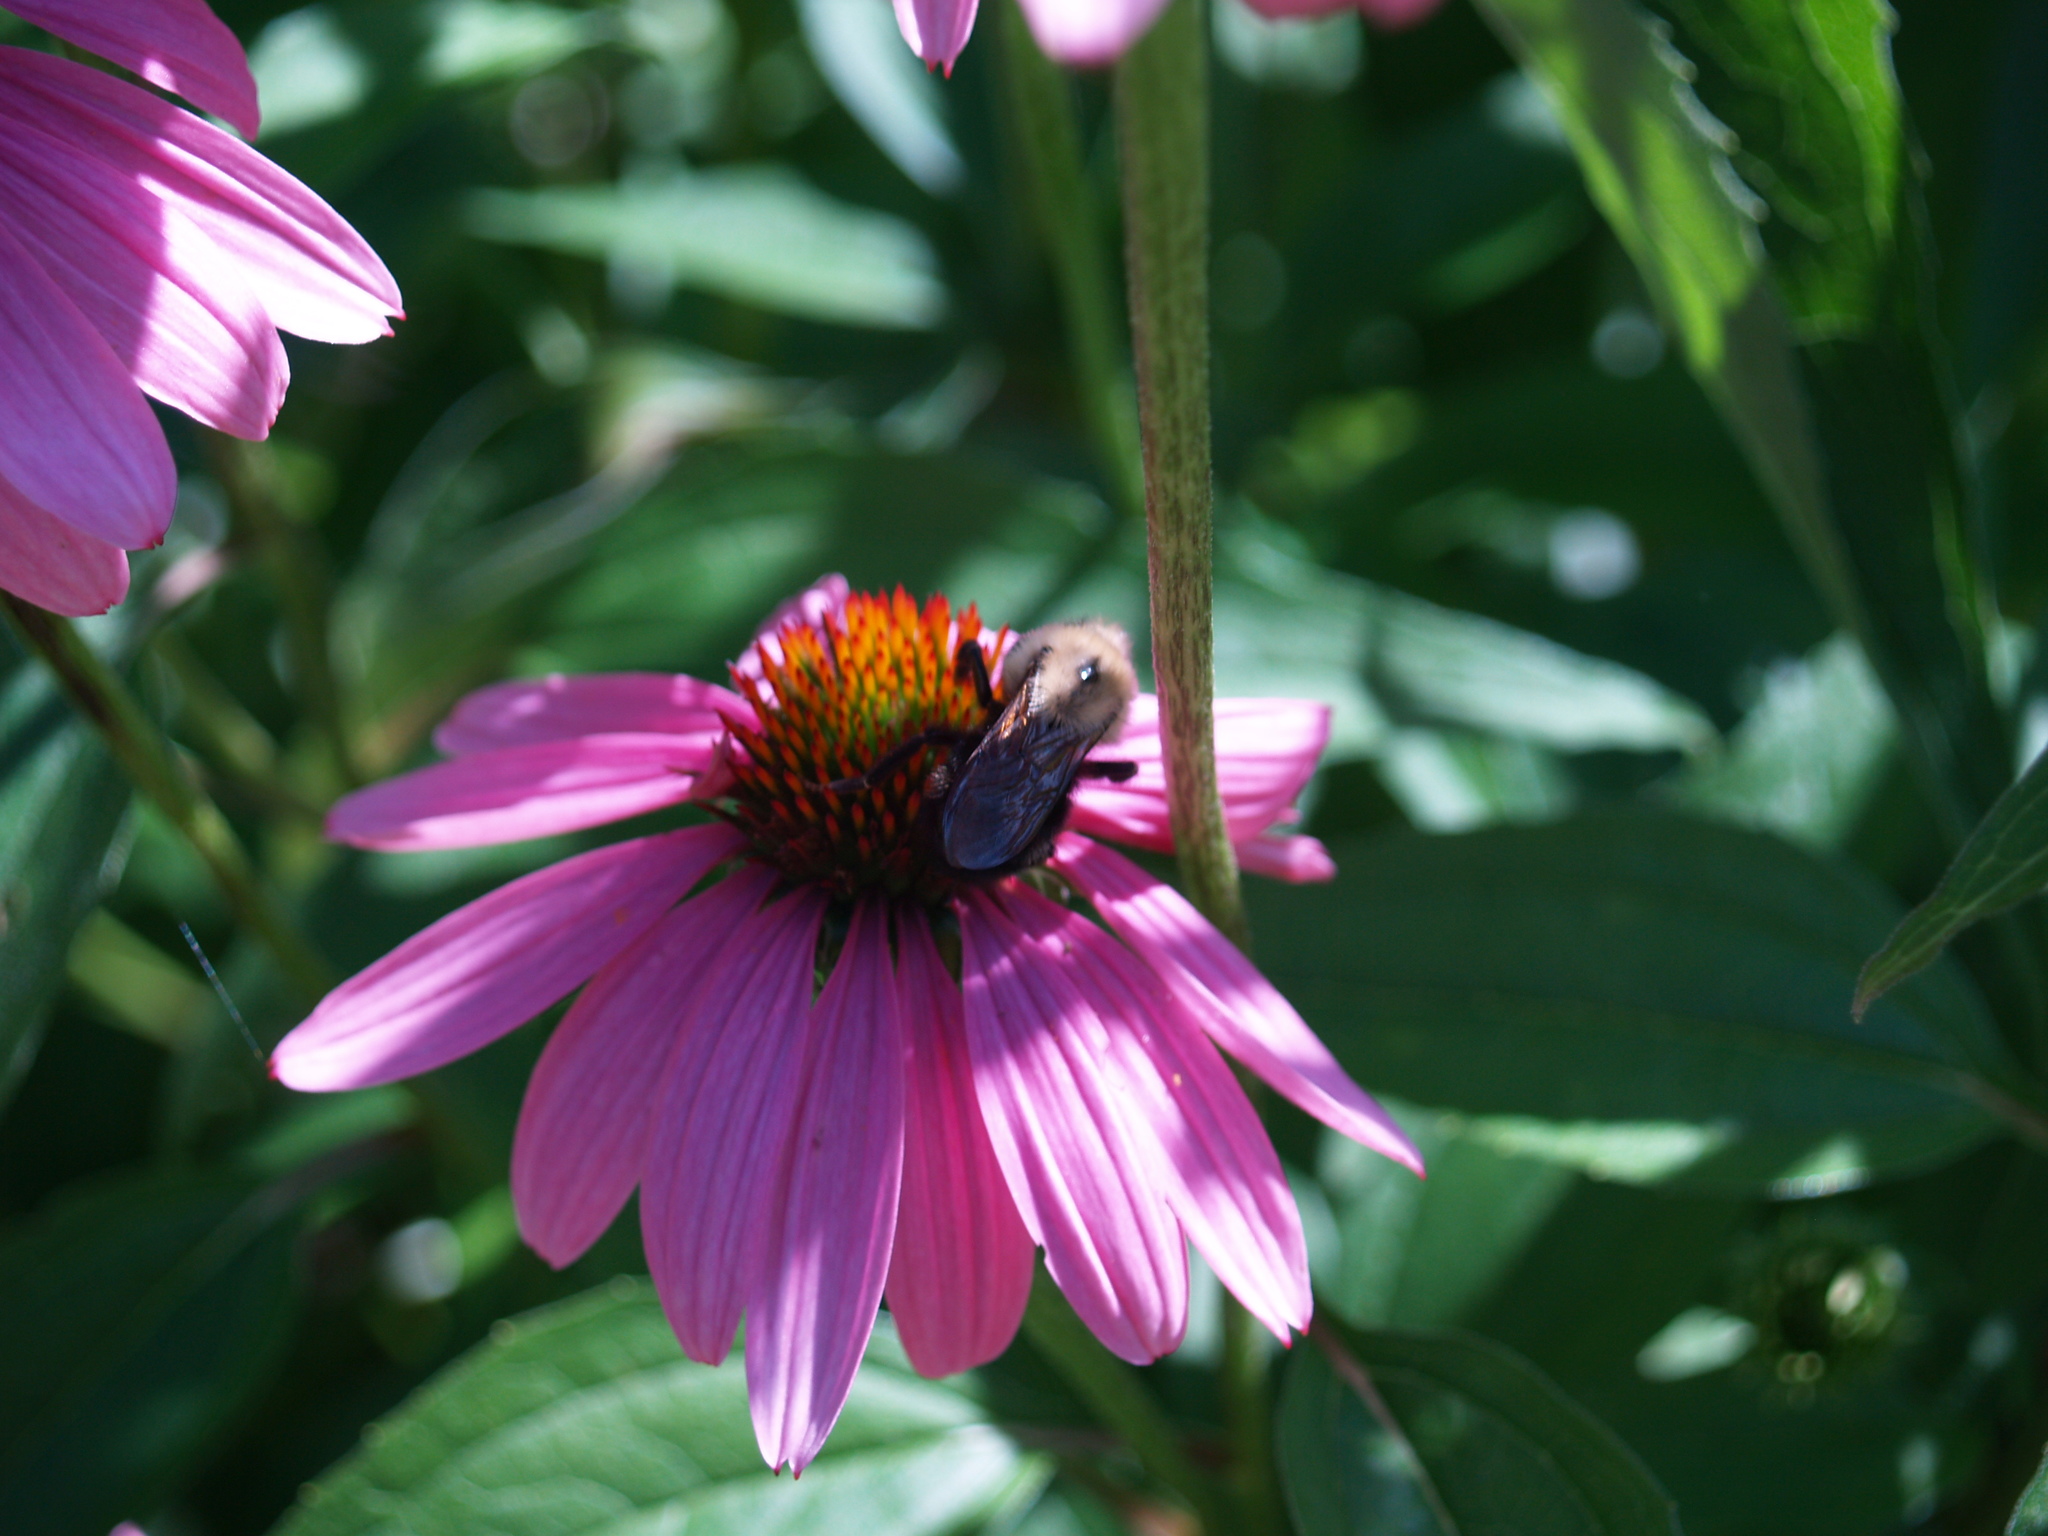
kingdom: Animalia
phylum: Arthropoda
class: Insecta
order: Hymenoptera
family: Apidae
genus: Bombus
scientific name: Bombus citrinus
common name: Lemon cuckoo bumble bee
